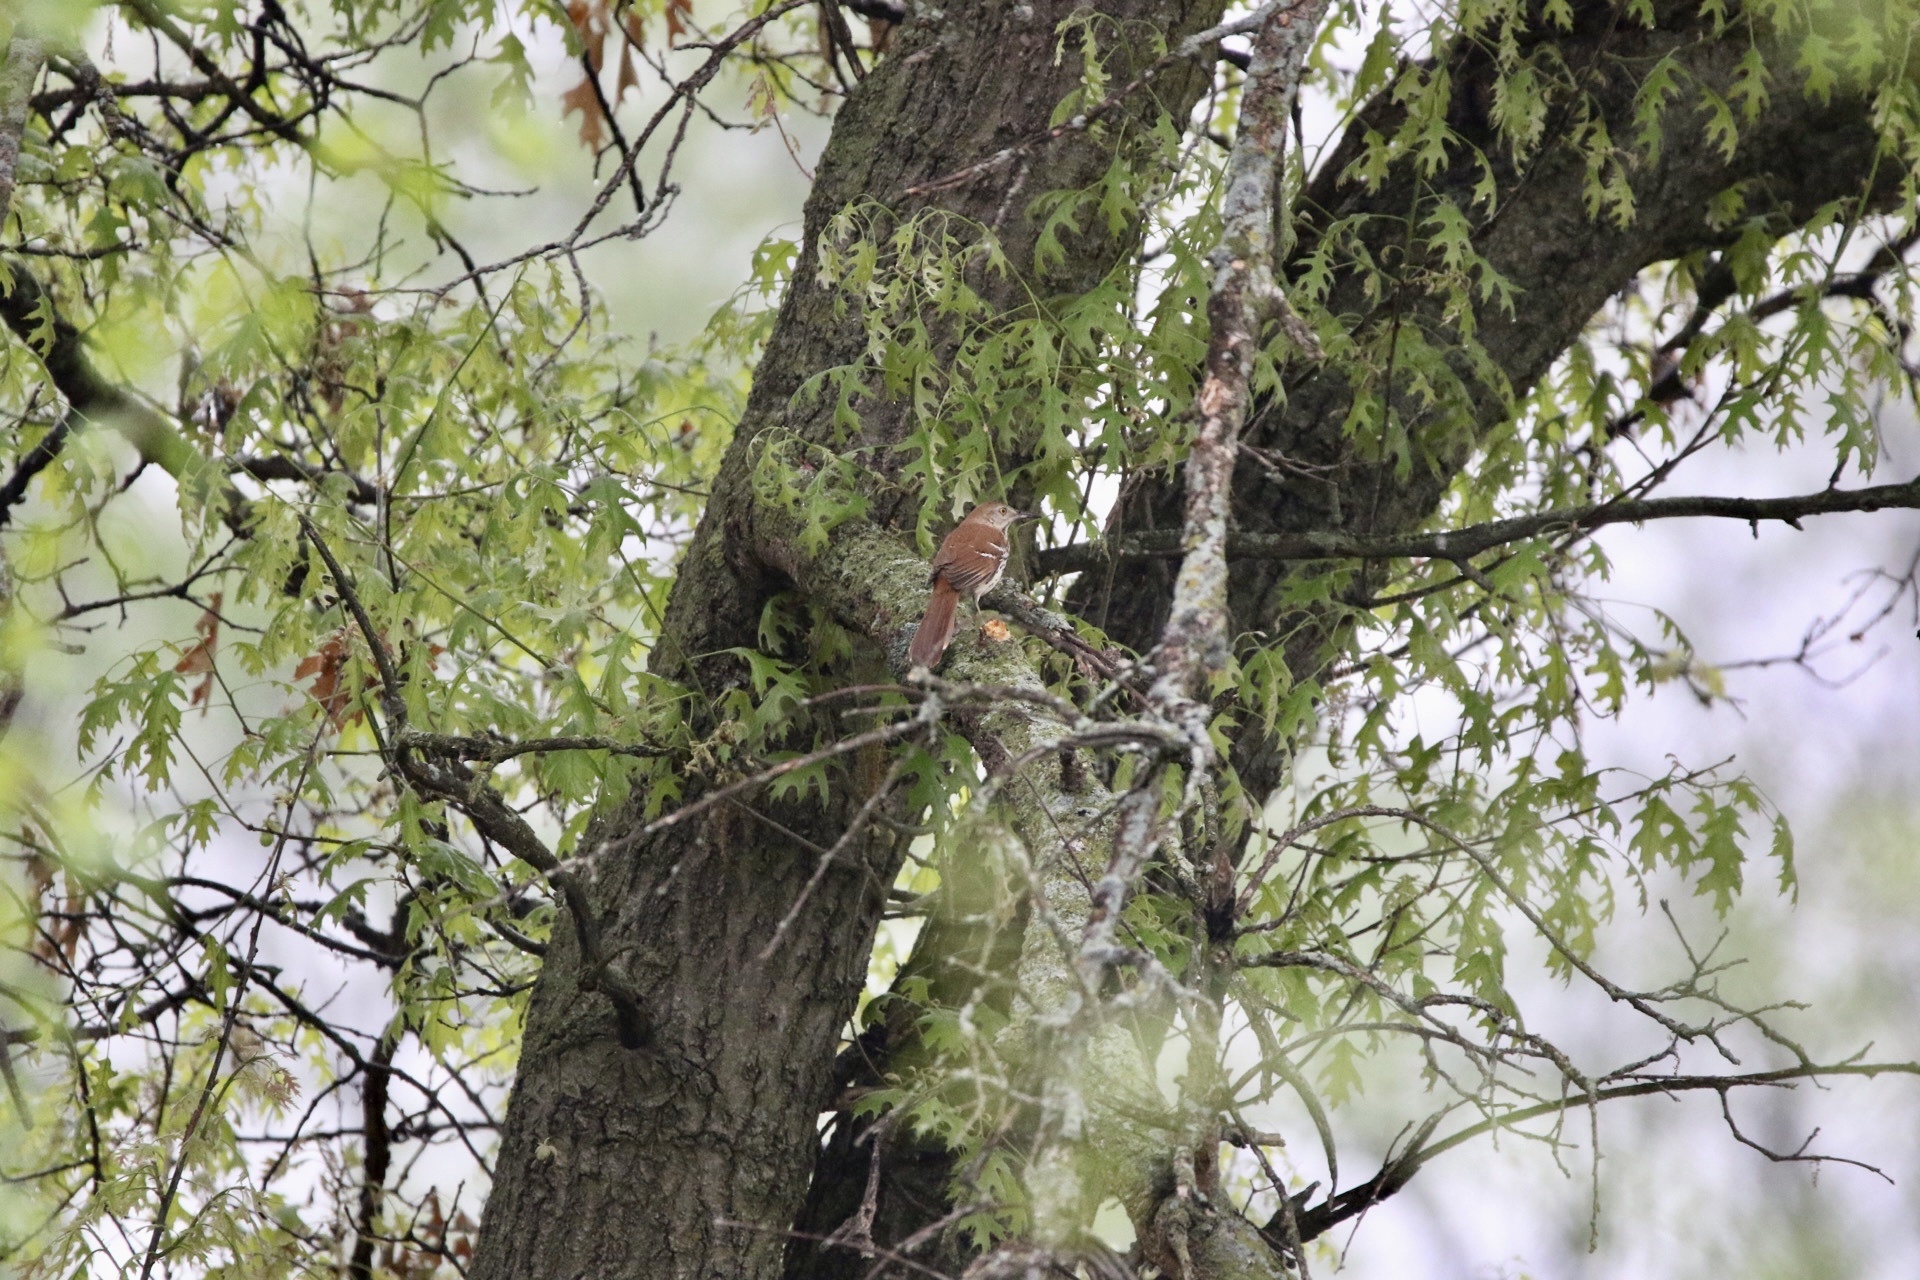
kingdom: Animalia
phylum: Chordata
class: Aves
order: Passeriformes
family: Mimidae
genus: Toxostoma
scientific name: Toxostoma rufum
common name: Brown thrasher
